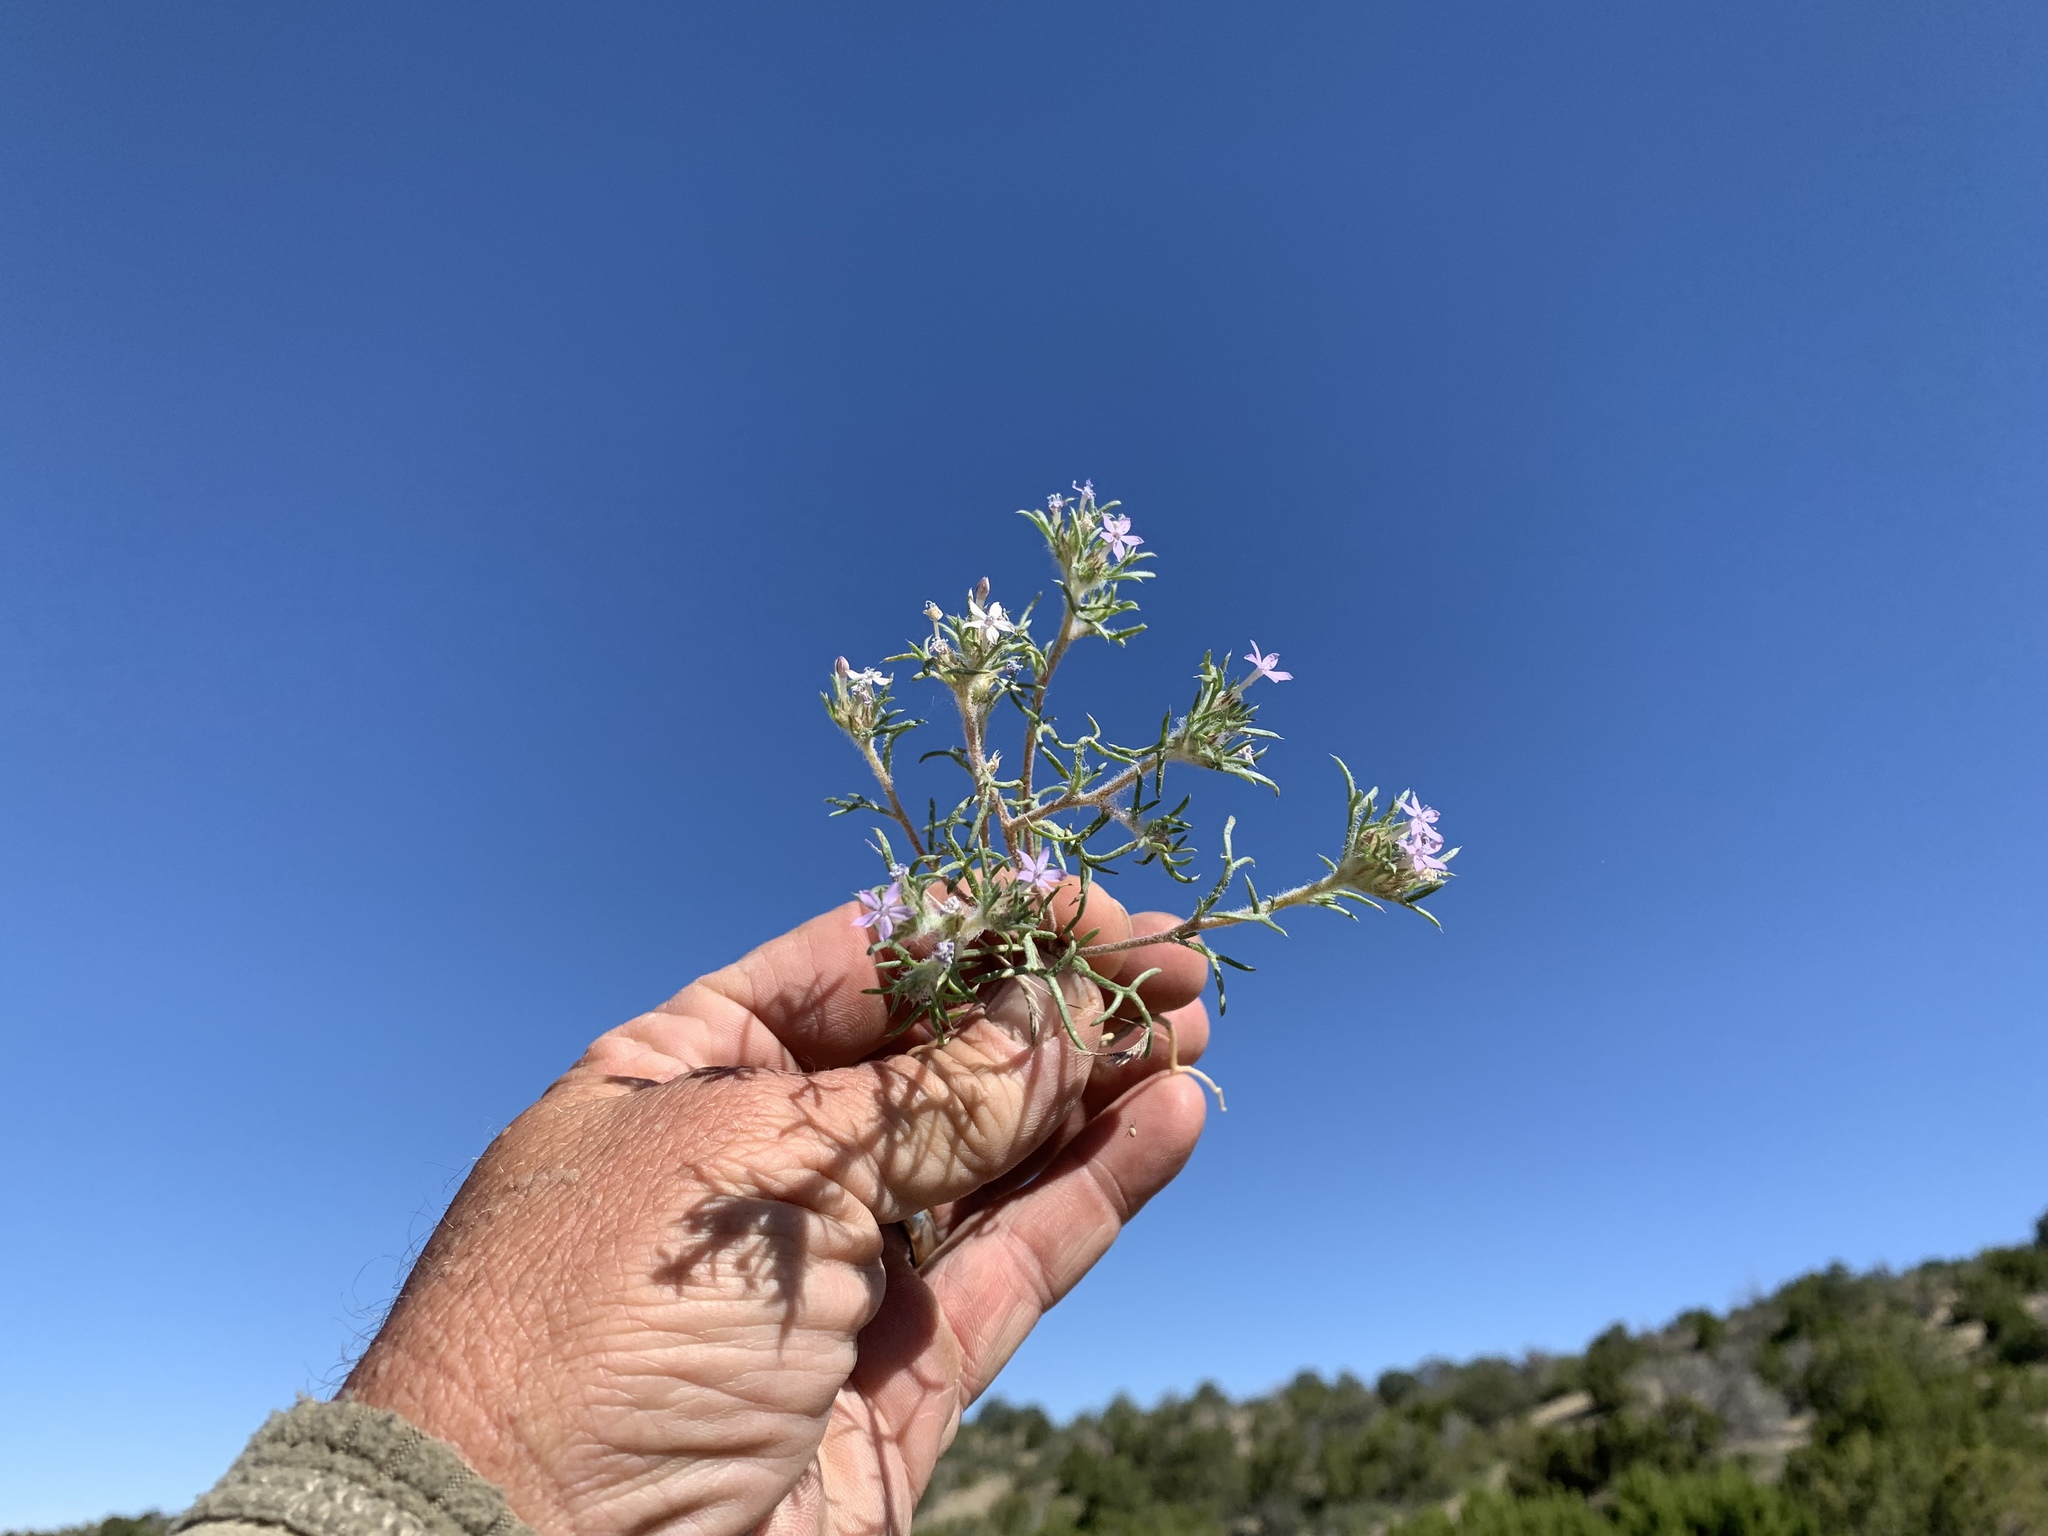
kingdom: Plantae
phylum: Tracheophyta
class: Magnoliopsida
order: Ericales
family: Polemoniaceae
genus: Ipomopsis
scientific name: Ipomopsis pumila
